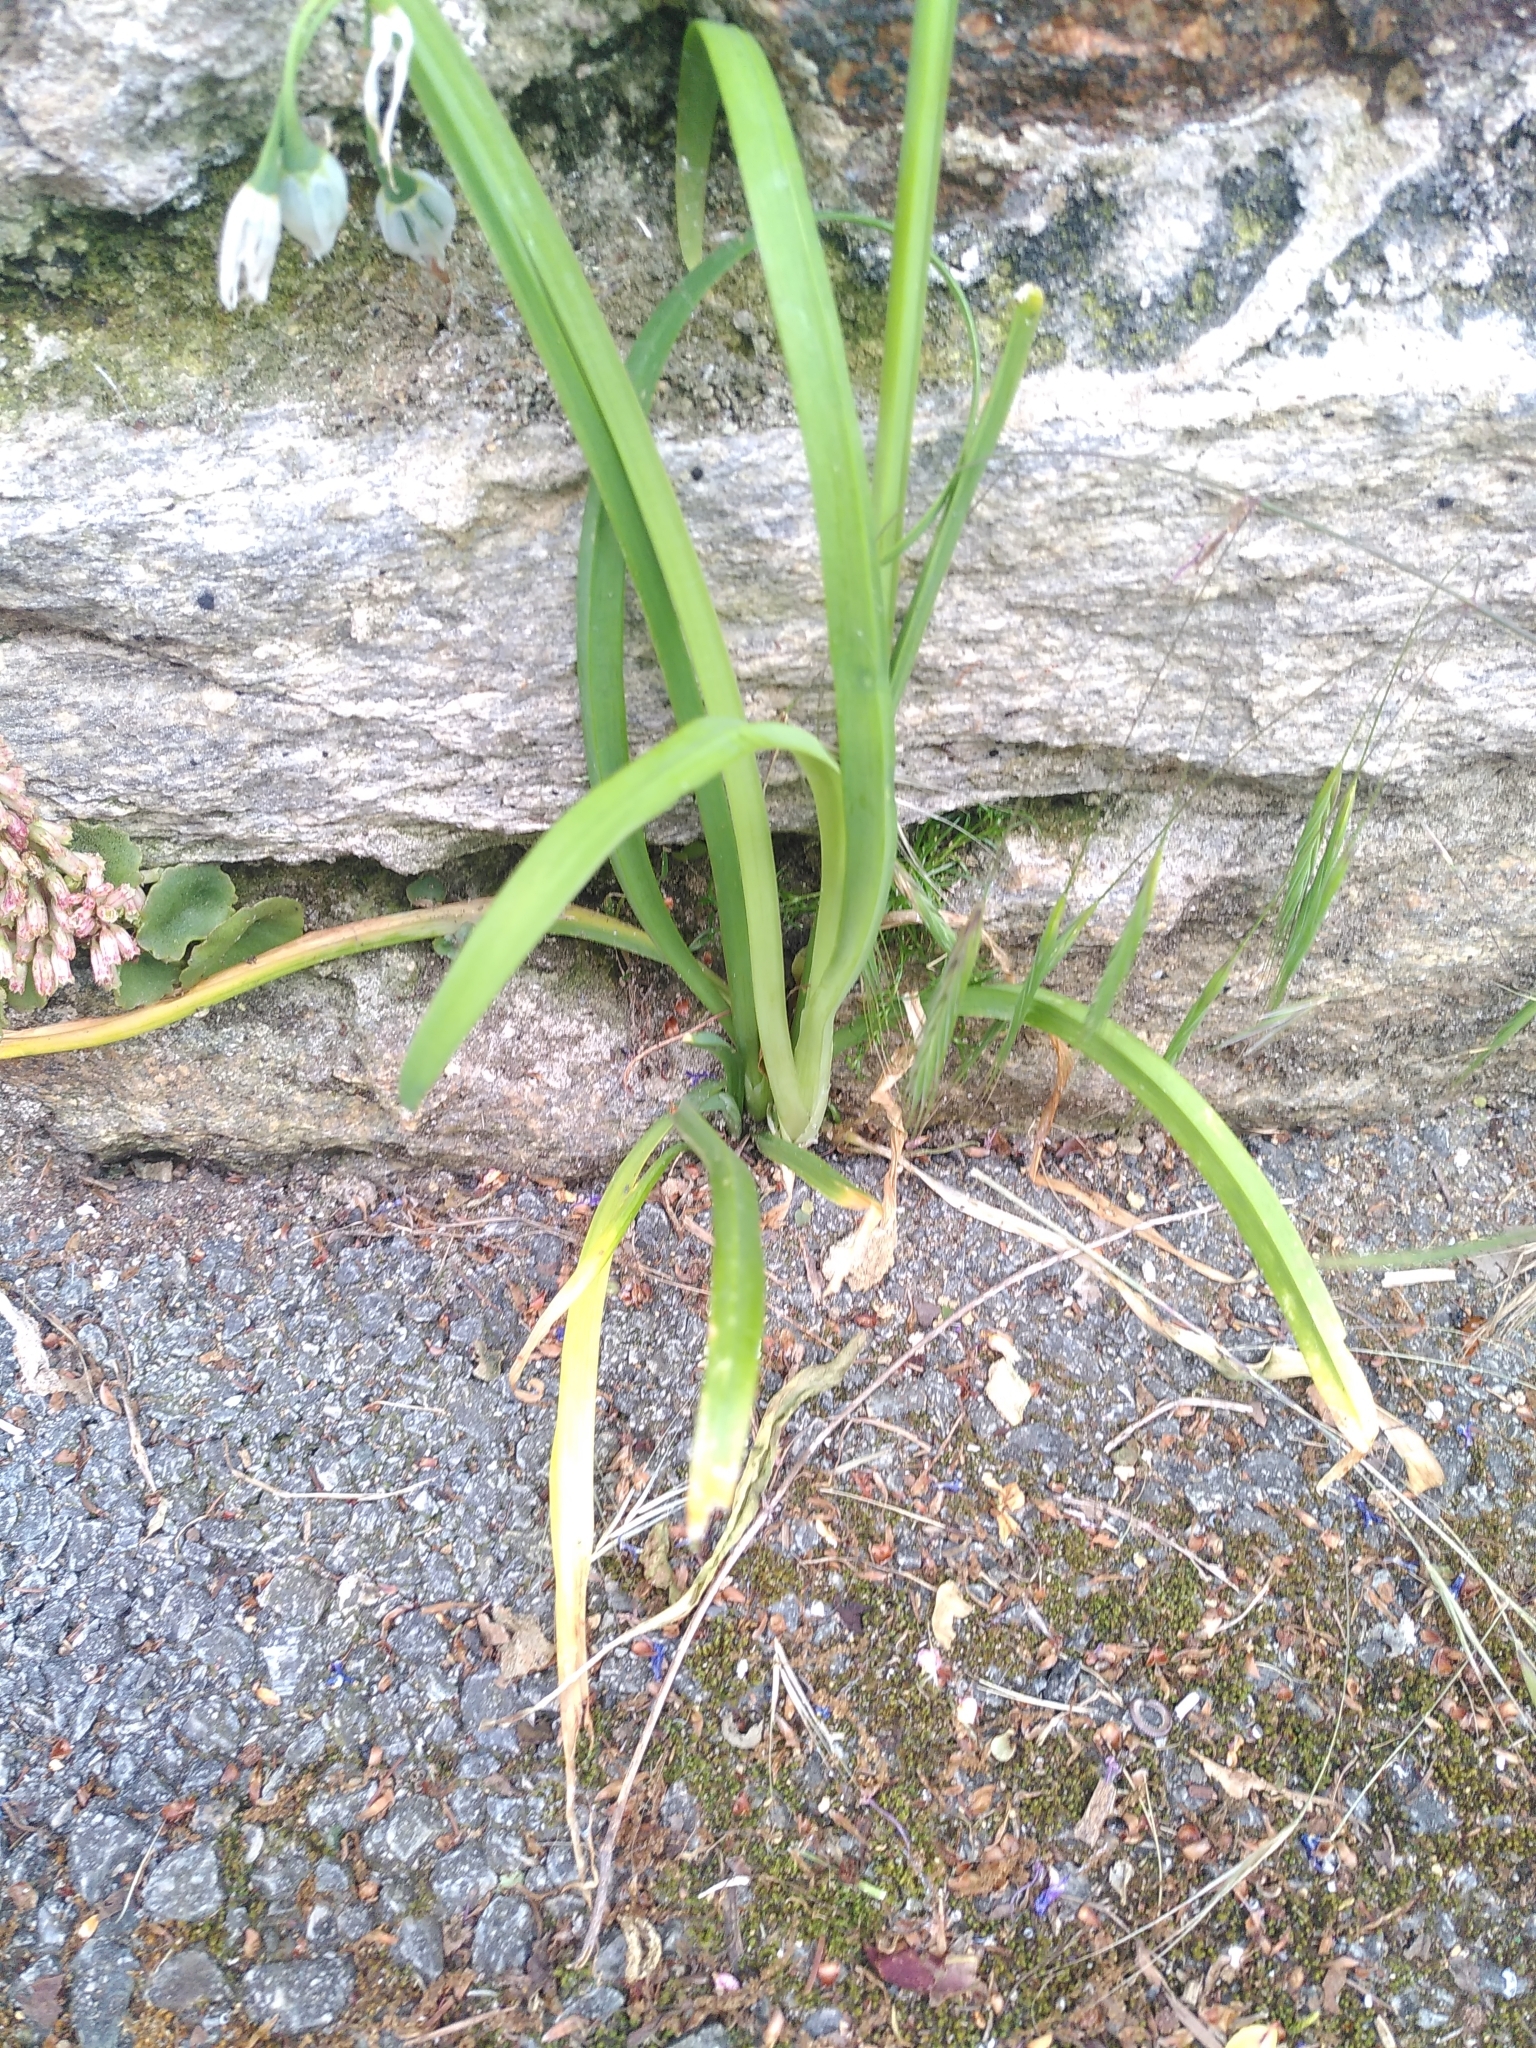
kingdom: Plantae
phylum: Tracheophyta
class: Liliopsida
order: Asparagales
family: Amaryllidaceae
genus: Allium
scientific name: Allium triquetrum
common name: Three-cornered garlic
